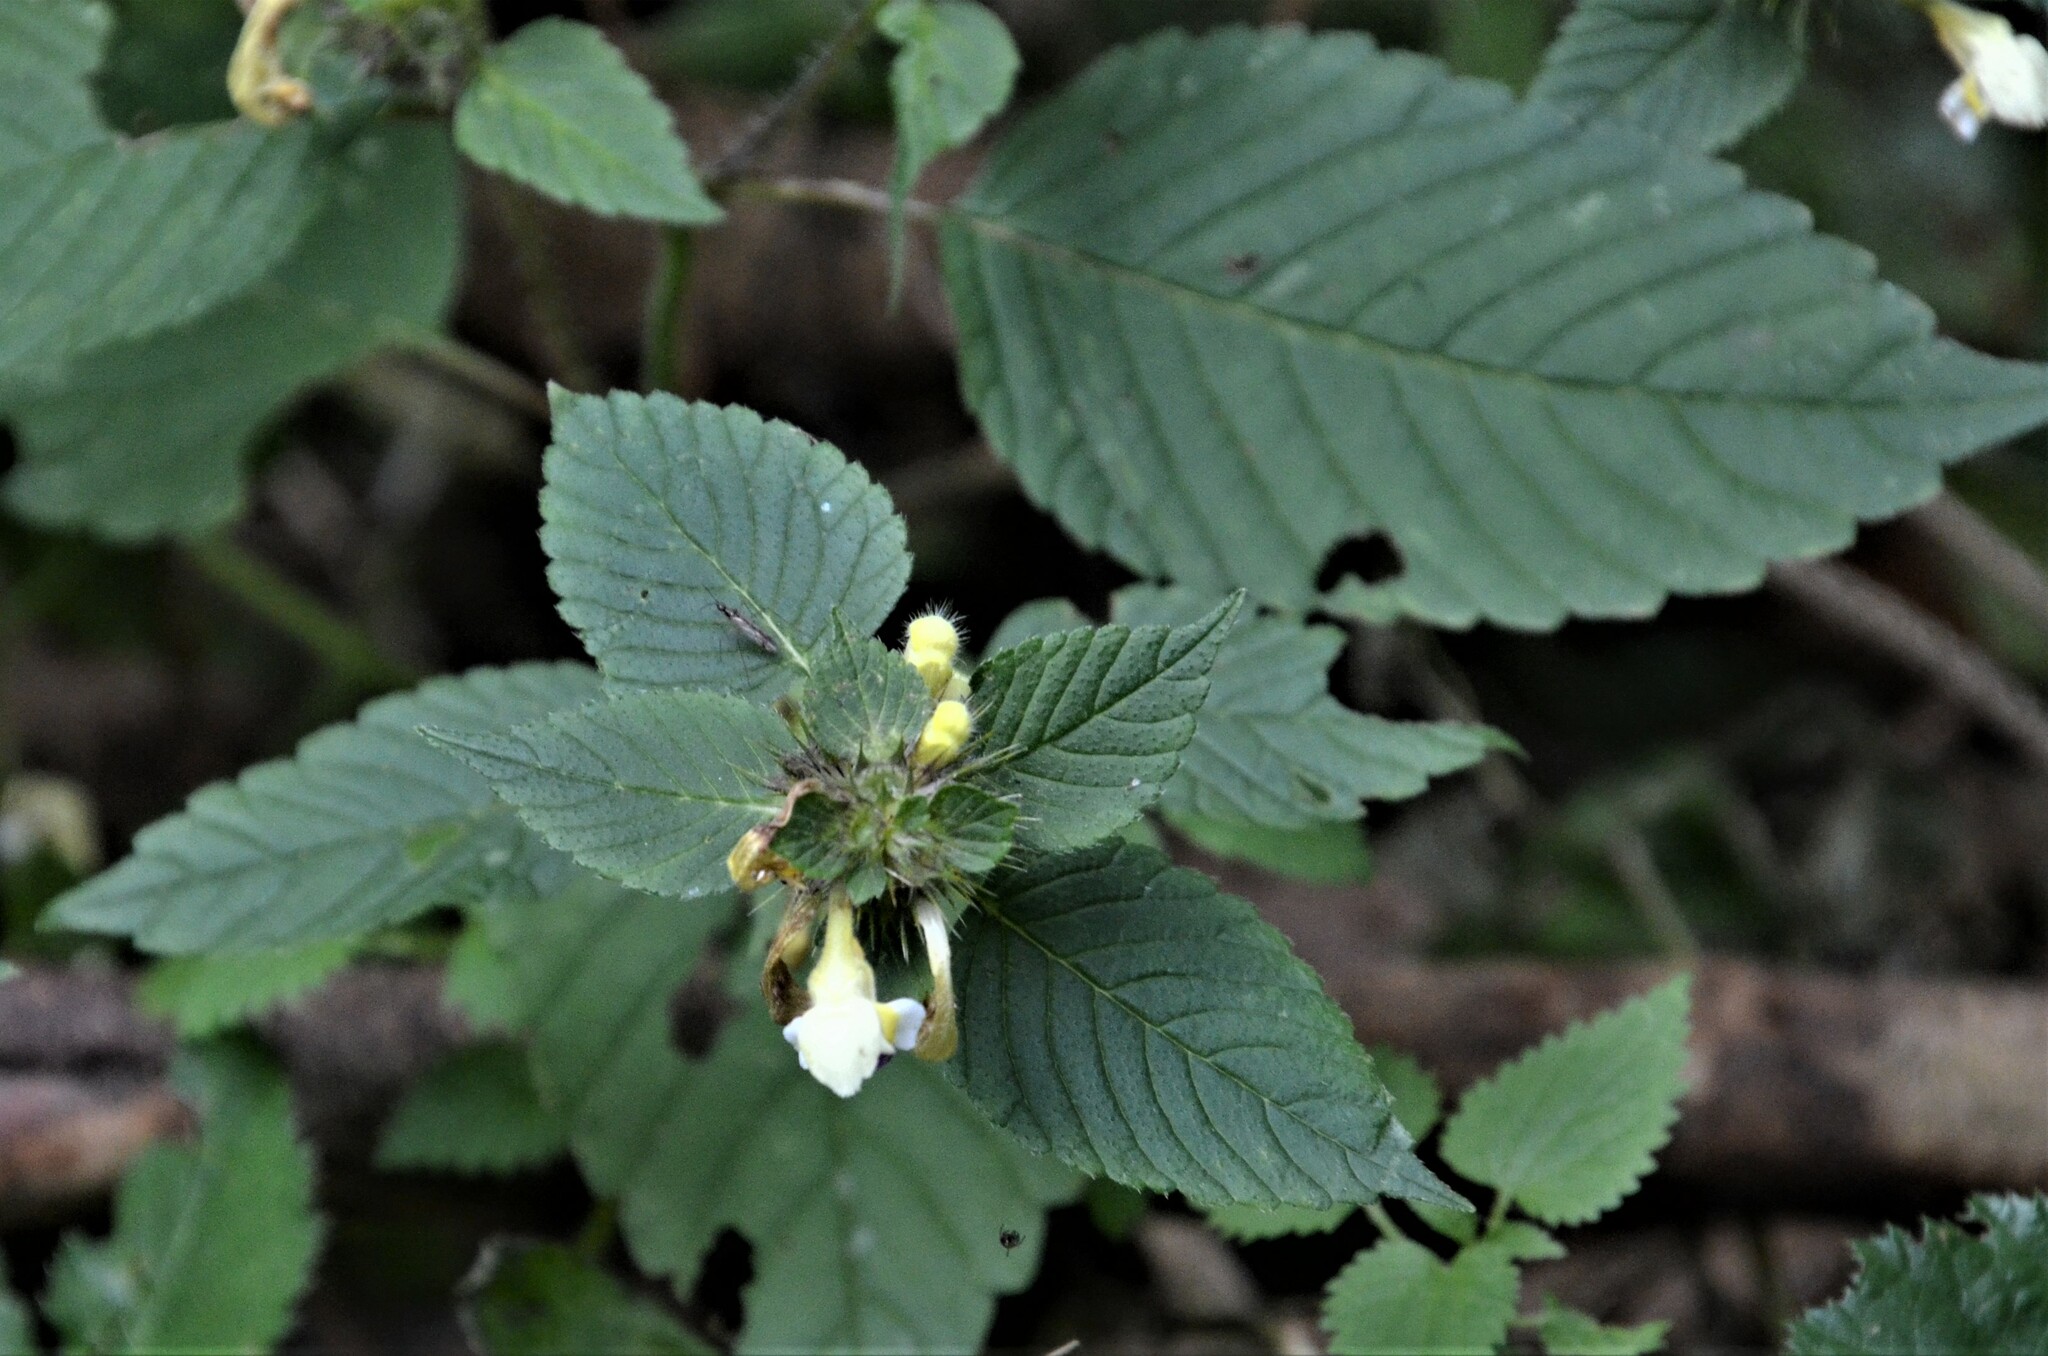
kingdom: Plantae
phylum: Tracheophyta
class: Magnoliopsida
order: Lamiales
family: Lamiaceae
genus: Galeopsis
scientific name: Galeopsis speciosa
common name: Large-flowered hemp-nettle
